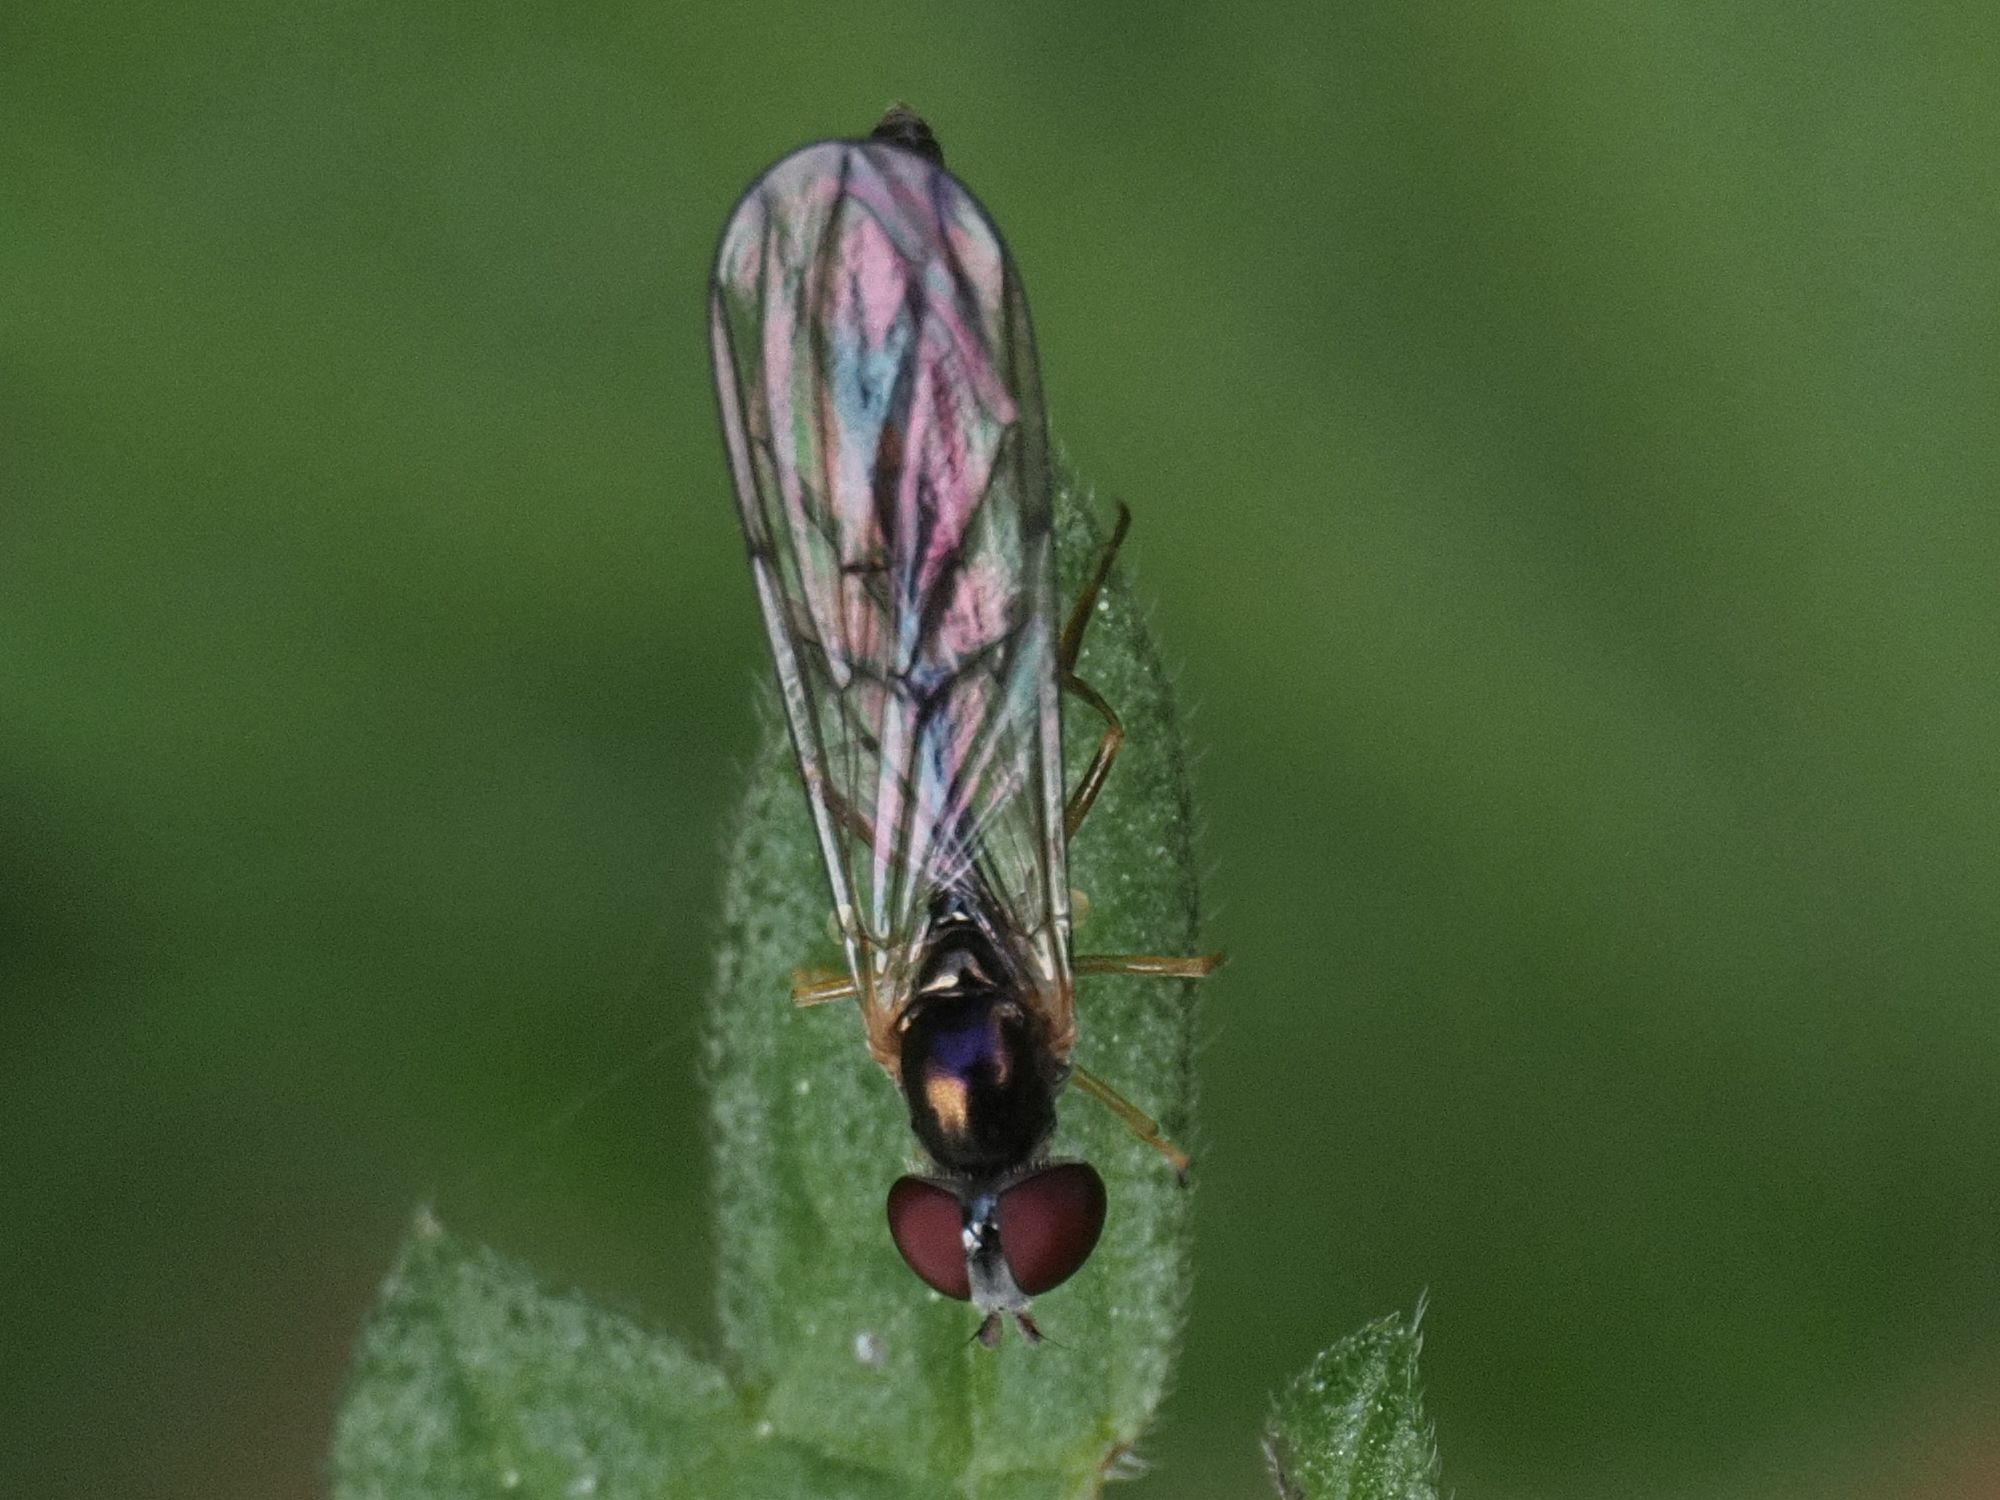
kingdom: Animalia
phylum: Arthropoda
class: Insecta
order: Diptera
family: Syrphidae
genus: Baccha
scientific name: Baccha elongata
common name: Common dainty
